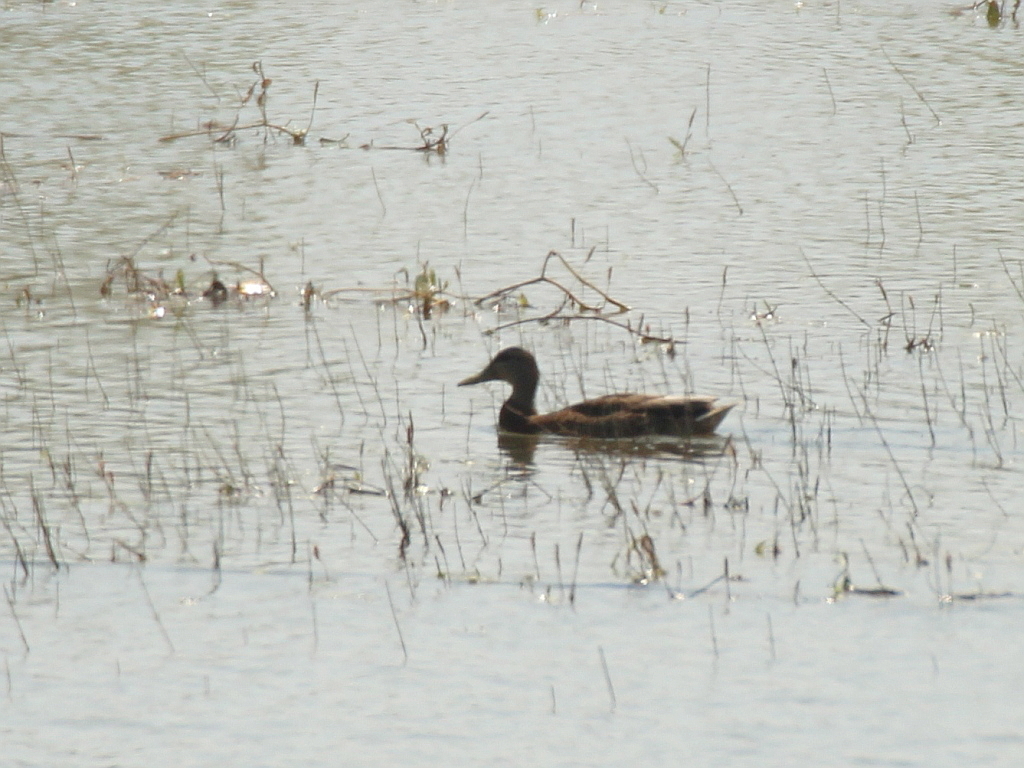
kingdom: Animalia
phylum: Chordata
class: Aves
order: Anseriformes
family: Anatidae
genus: Anas
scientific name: Anas platyrhynchos
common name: Mallard
